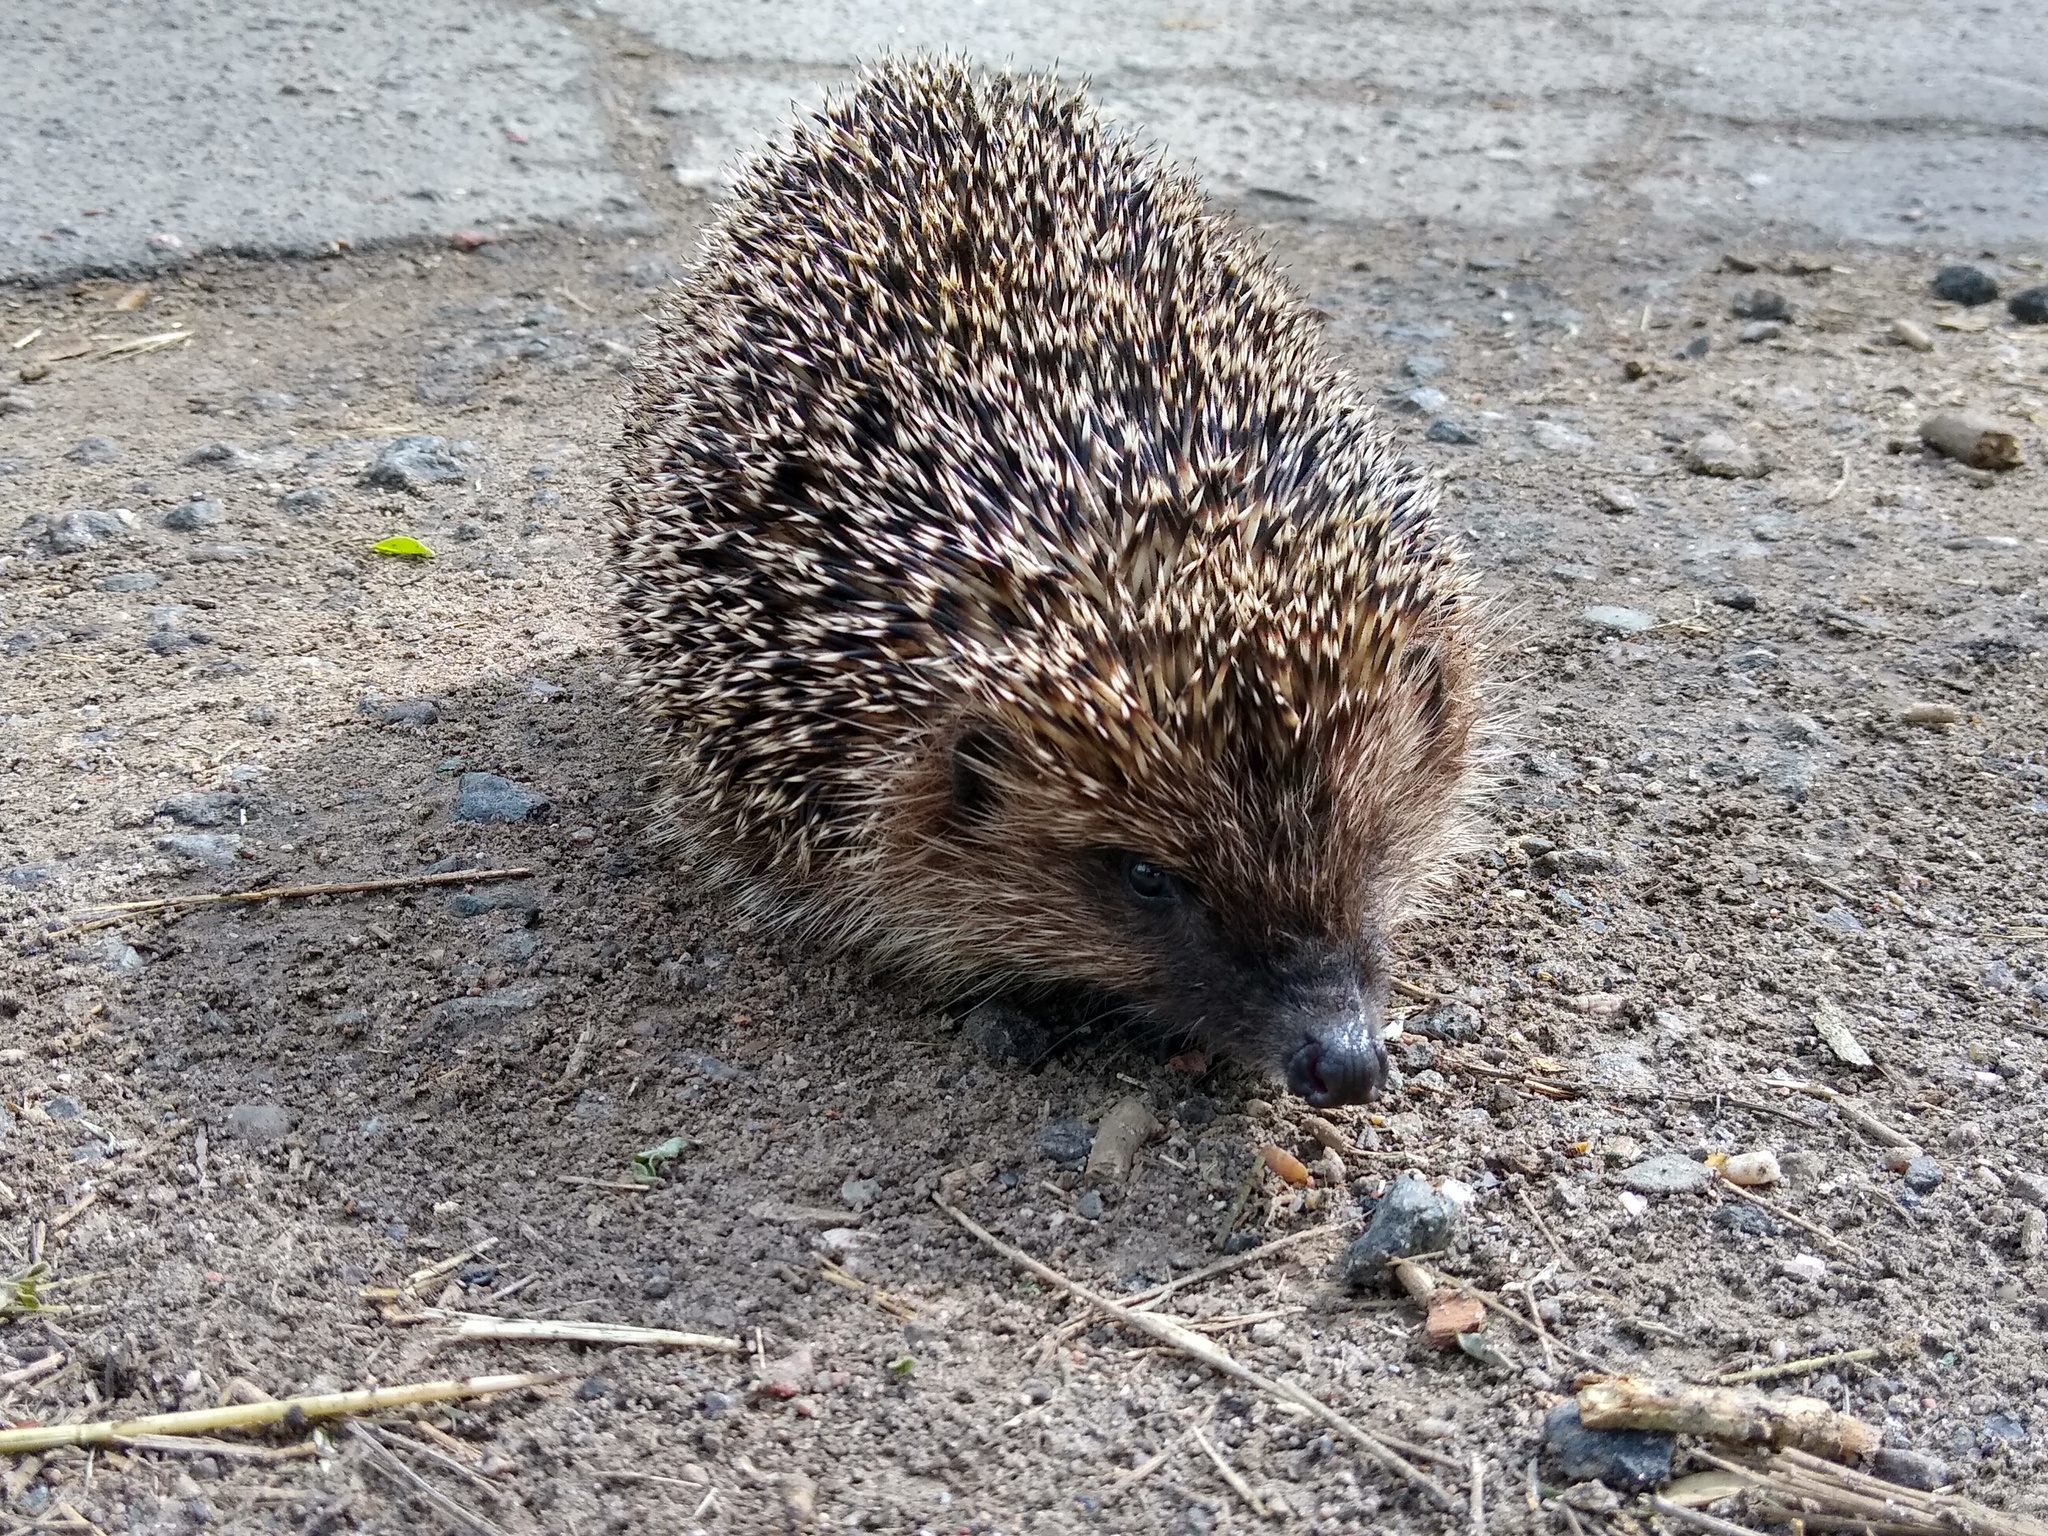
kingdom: Animalia
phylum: Chordata
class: Mammalia
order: Erinaceomorpha
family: Erinaceidae
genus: Erinaceus
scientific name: Erinaceus roumanicus
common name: Northern white-breasted hedgehog
